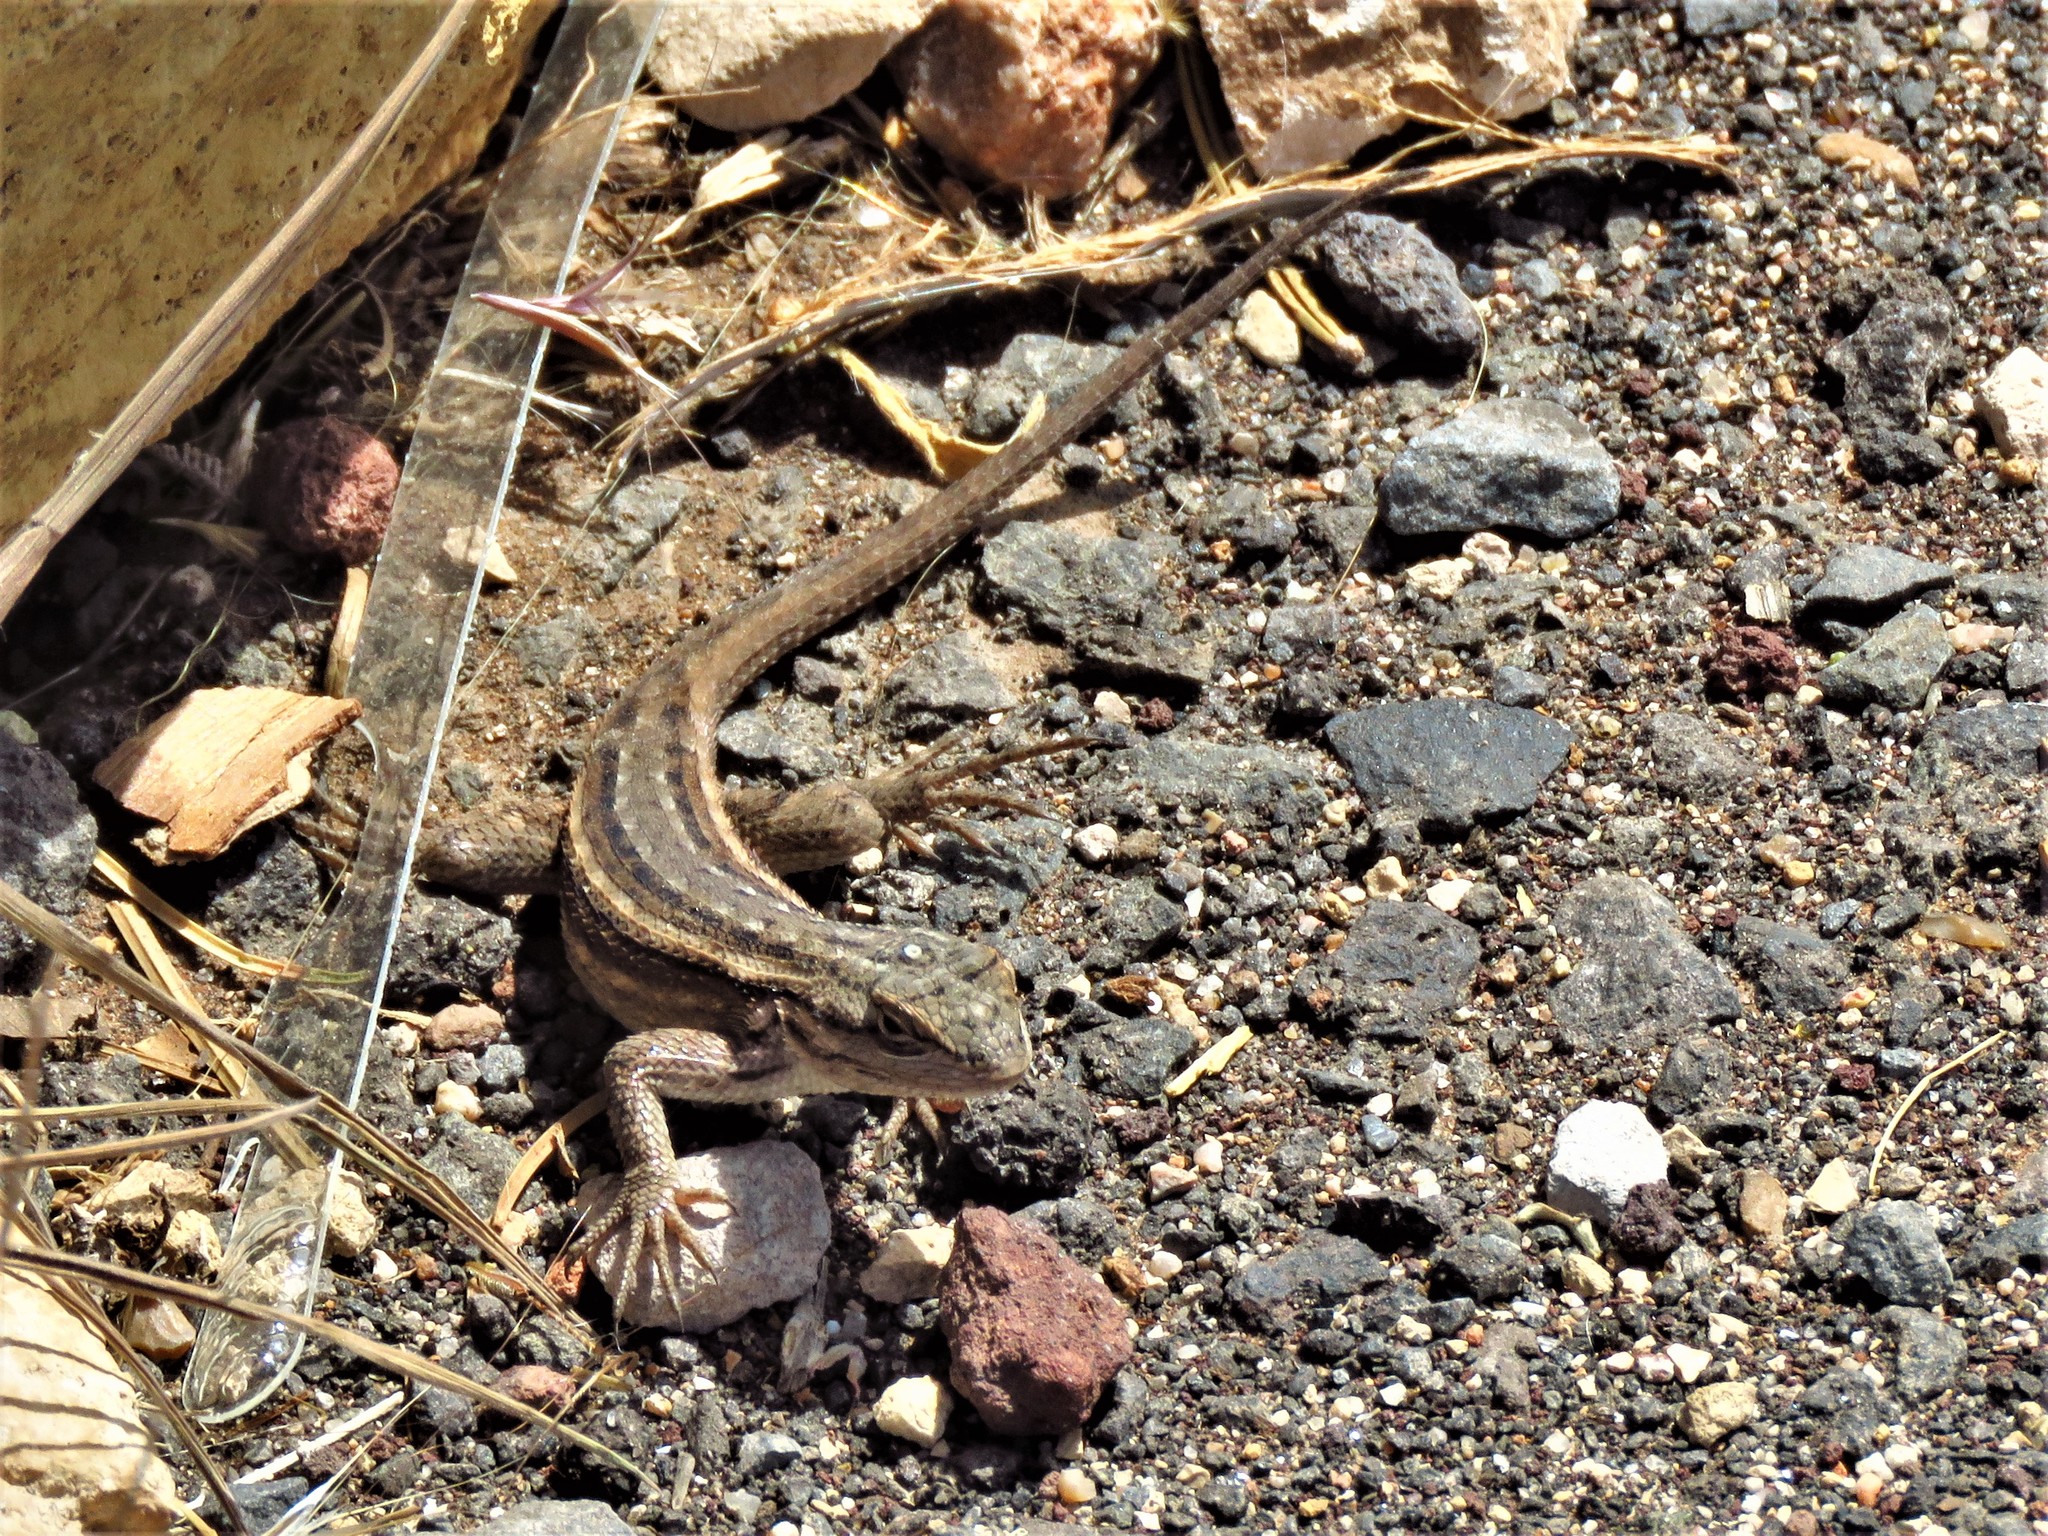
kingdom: Animalia
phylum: Chordata
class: Squamata
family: Phrynosomatidae
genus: Sceloporus
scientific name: Sceloporus tristichus
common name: Plateau fence lizard
